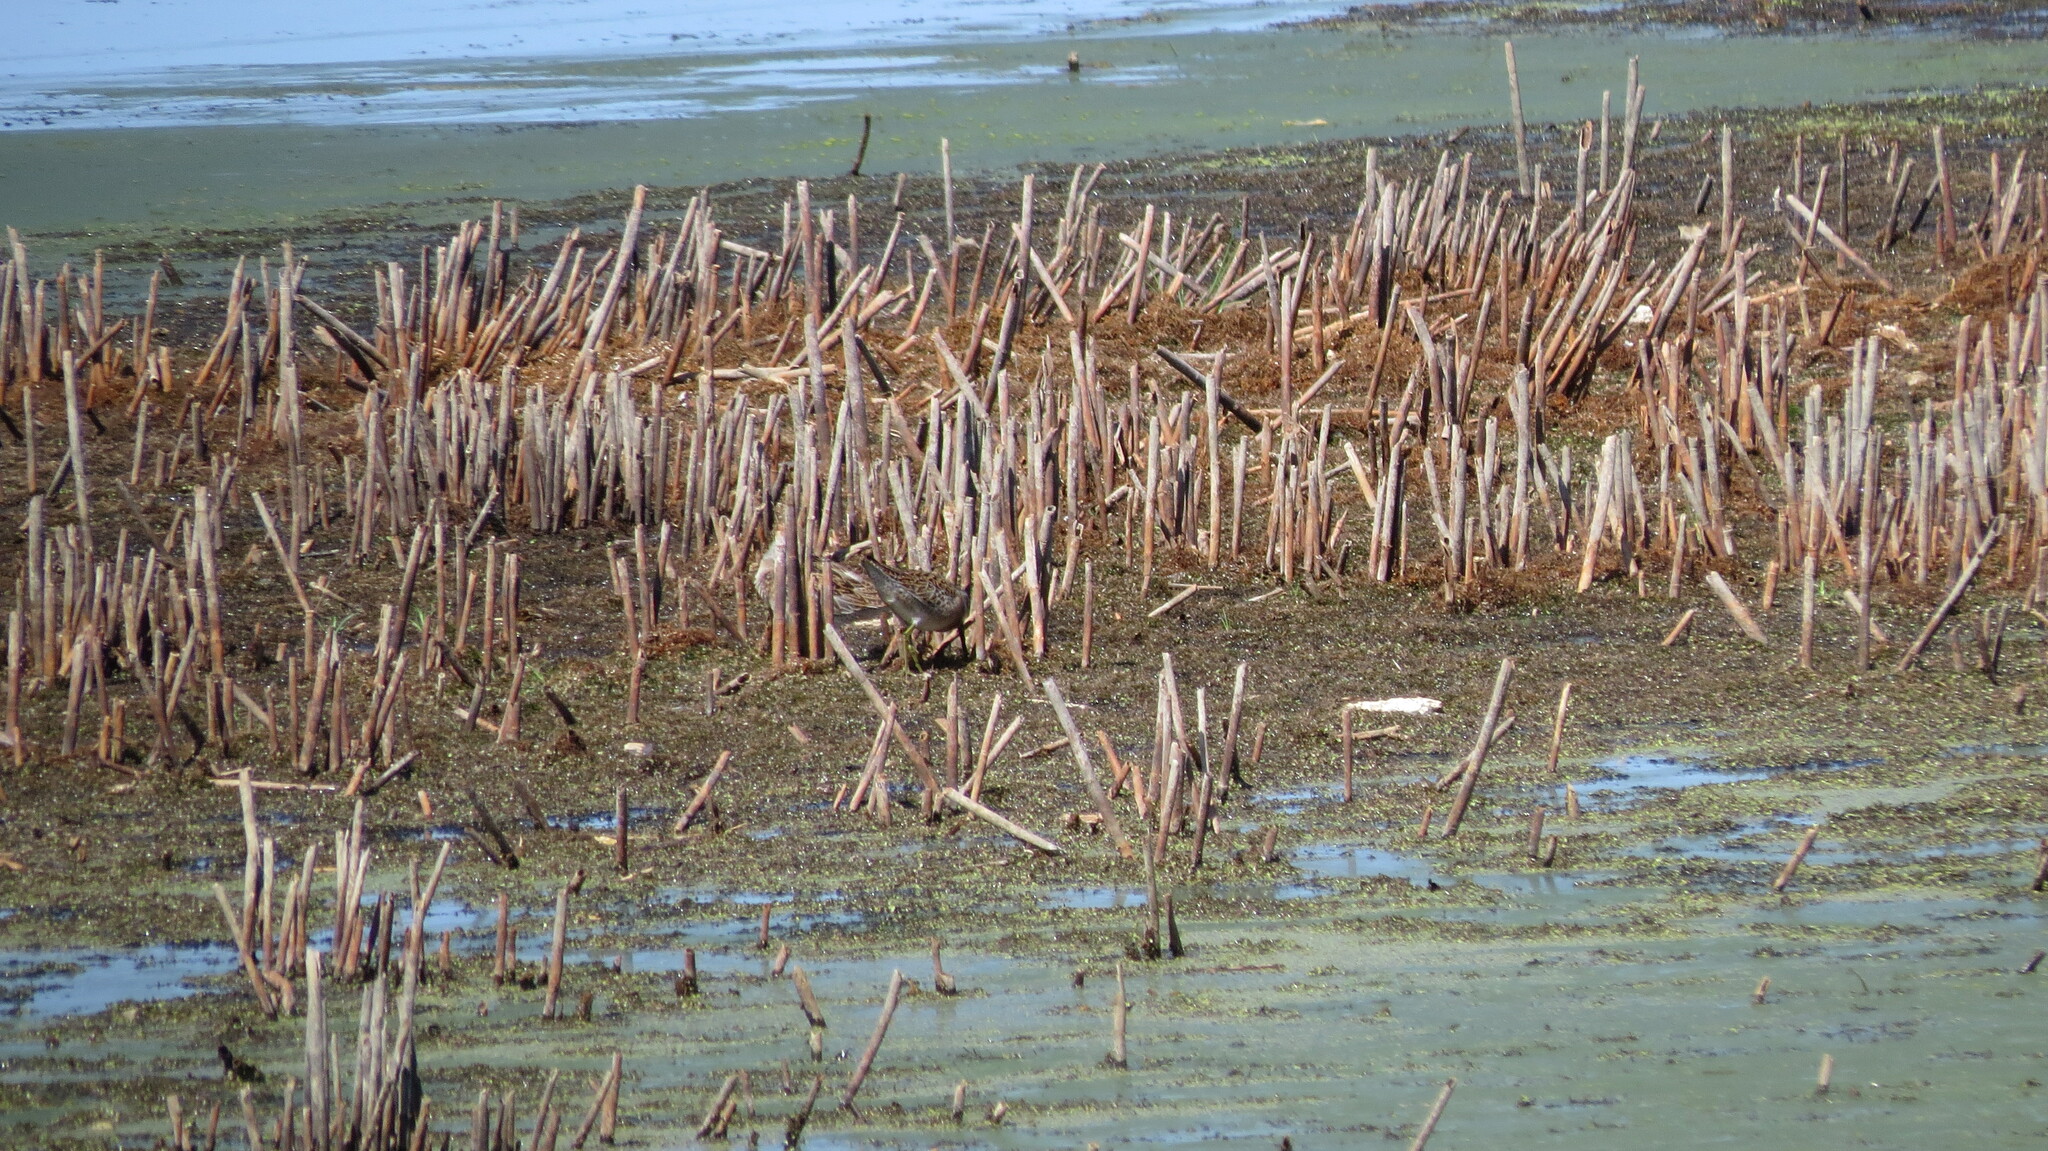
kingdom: Animalia
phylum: Chordata
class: Aves
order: Charadriiformes
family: Scolopacidae
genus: Limnodromus
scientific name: Limnodromus griseus
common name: Short-billed dowitcher
